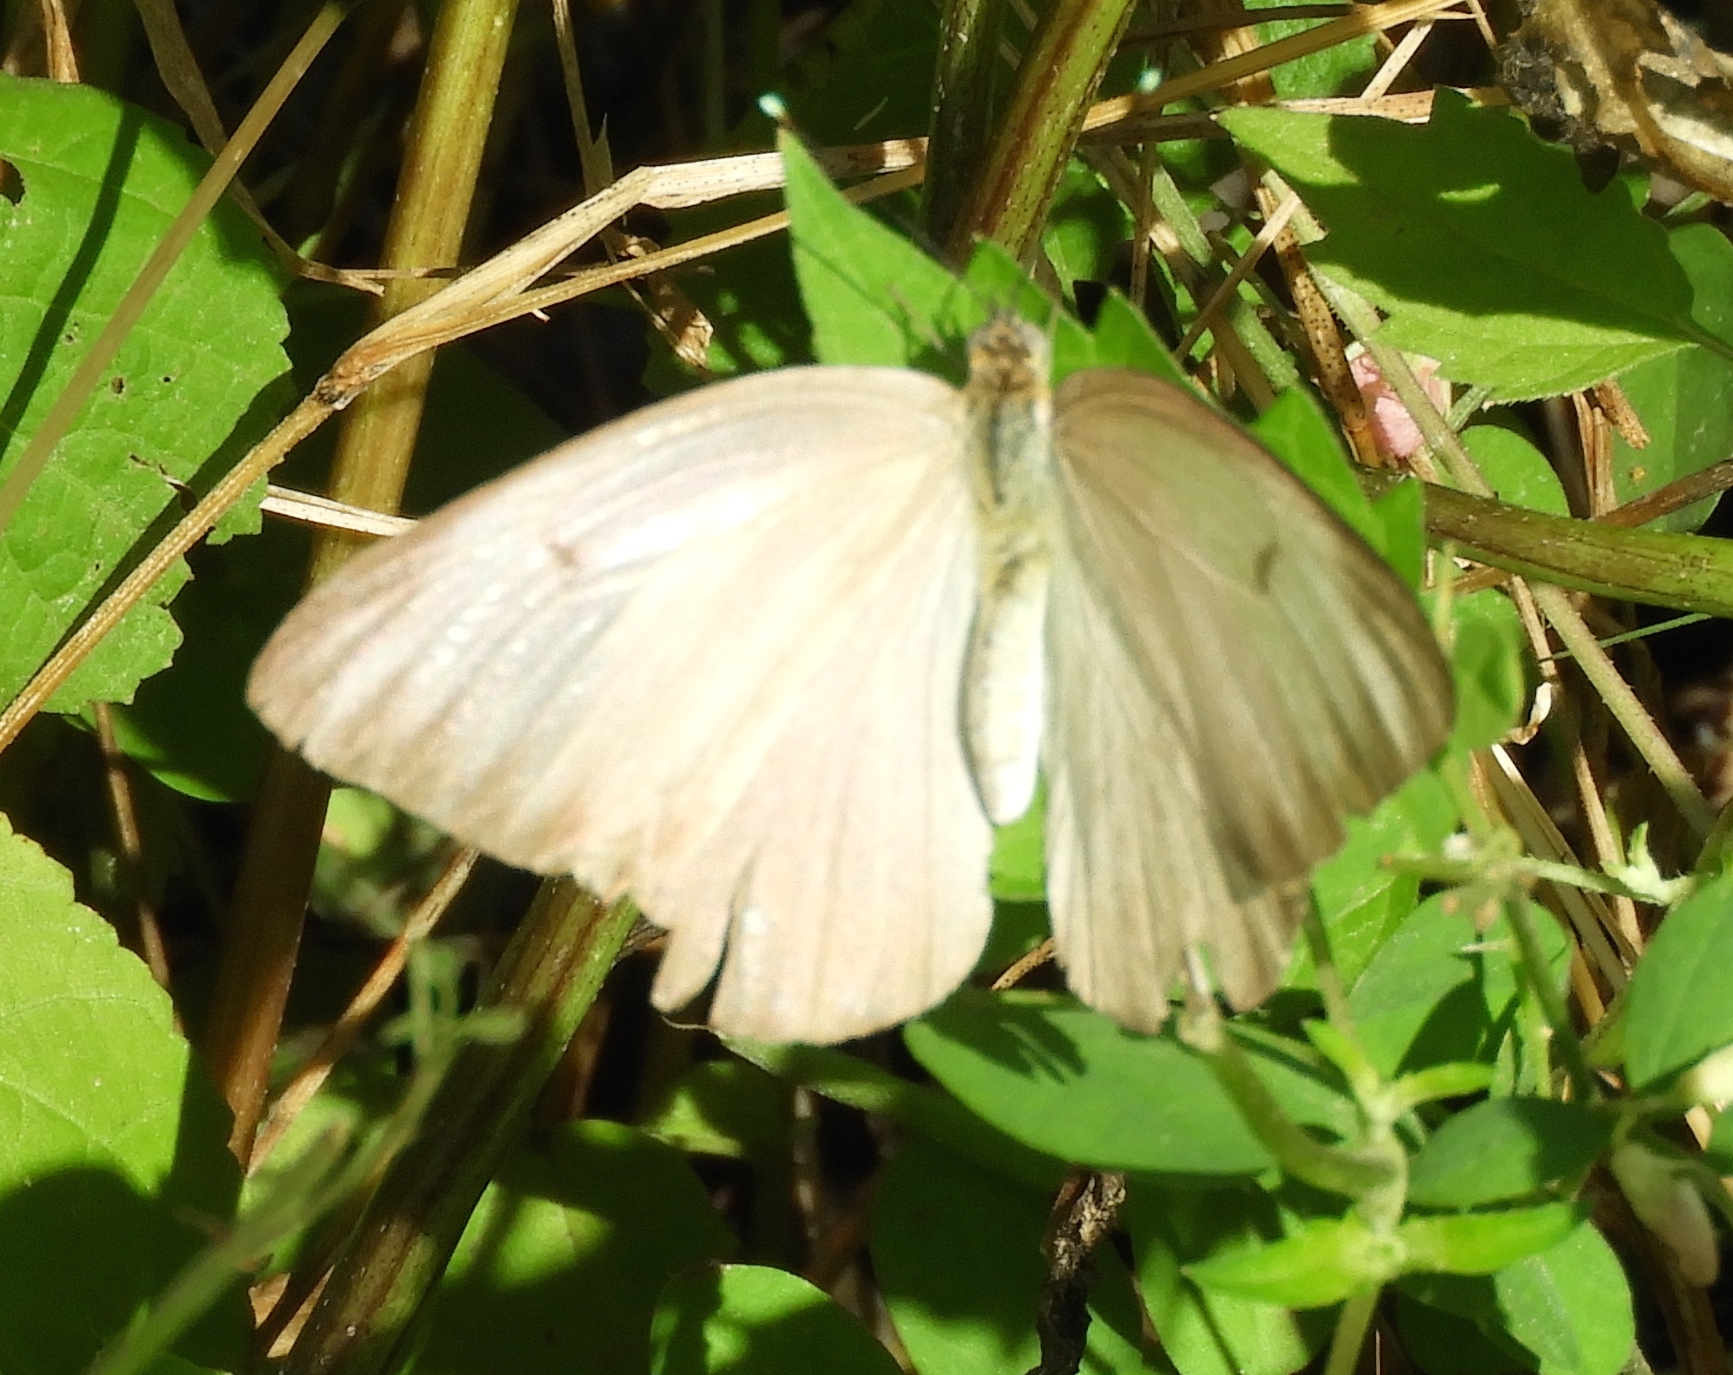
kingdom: Animalia
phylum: Arthropoda
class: Insecta
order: Lepidoptera
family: Pieridae
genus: Ascia
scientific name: Ascia monuste
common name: Great southern white
